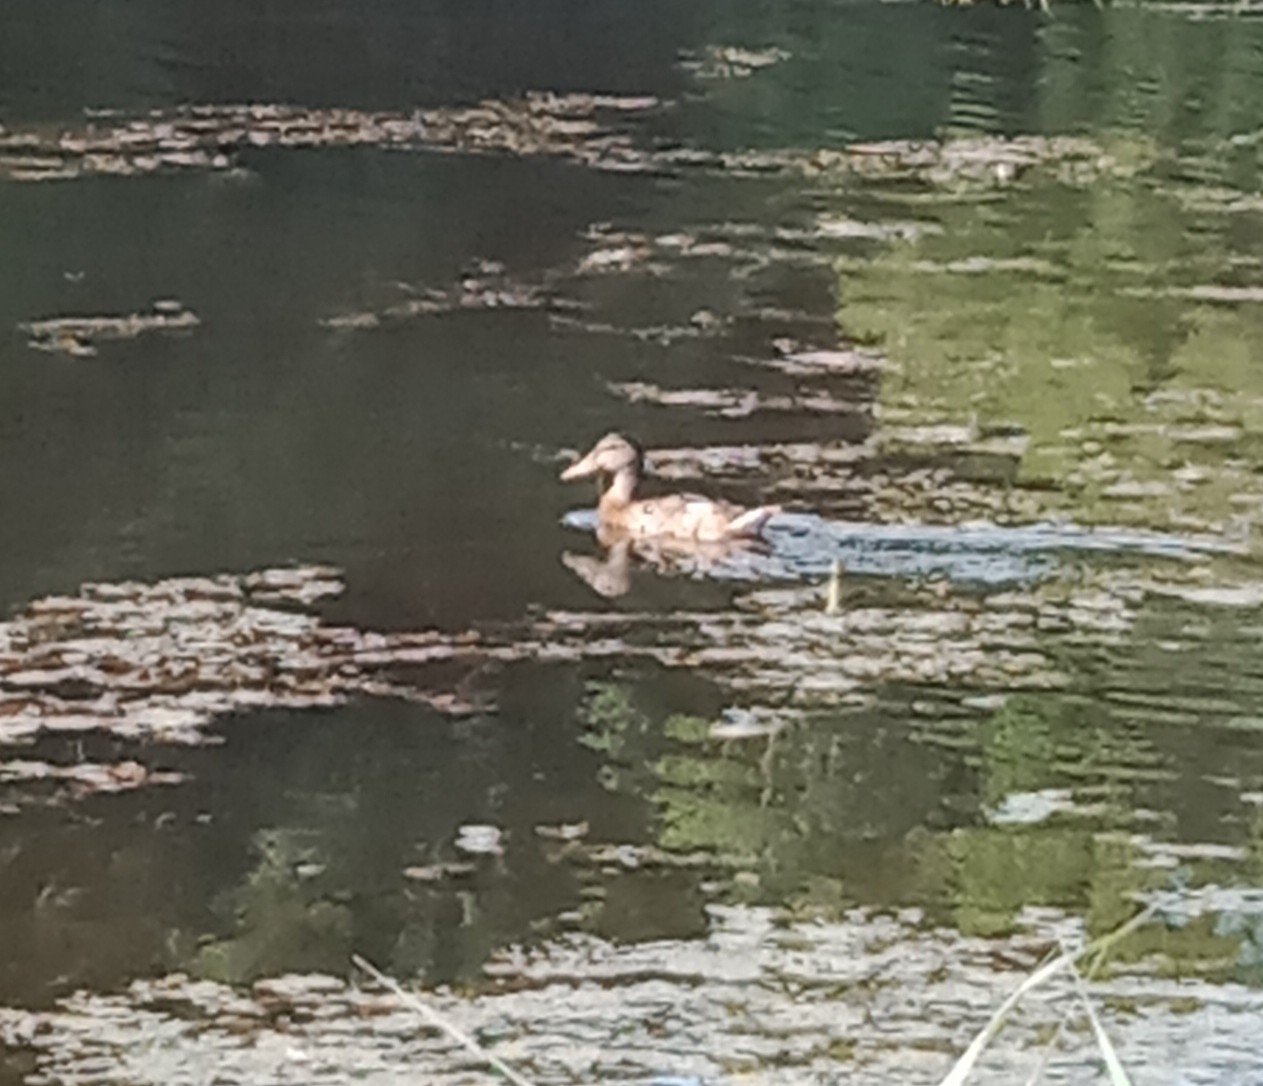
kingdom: Animalia
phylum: Chordata
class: Aves
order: Anseriformes
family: Anatidae
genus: Anas
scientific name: Anas platyrhynchos
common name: Mallard
